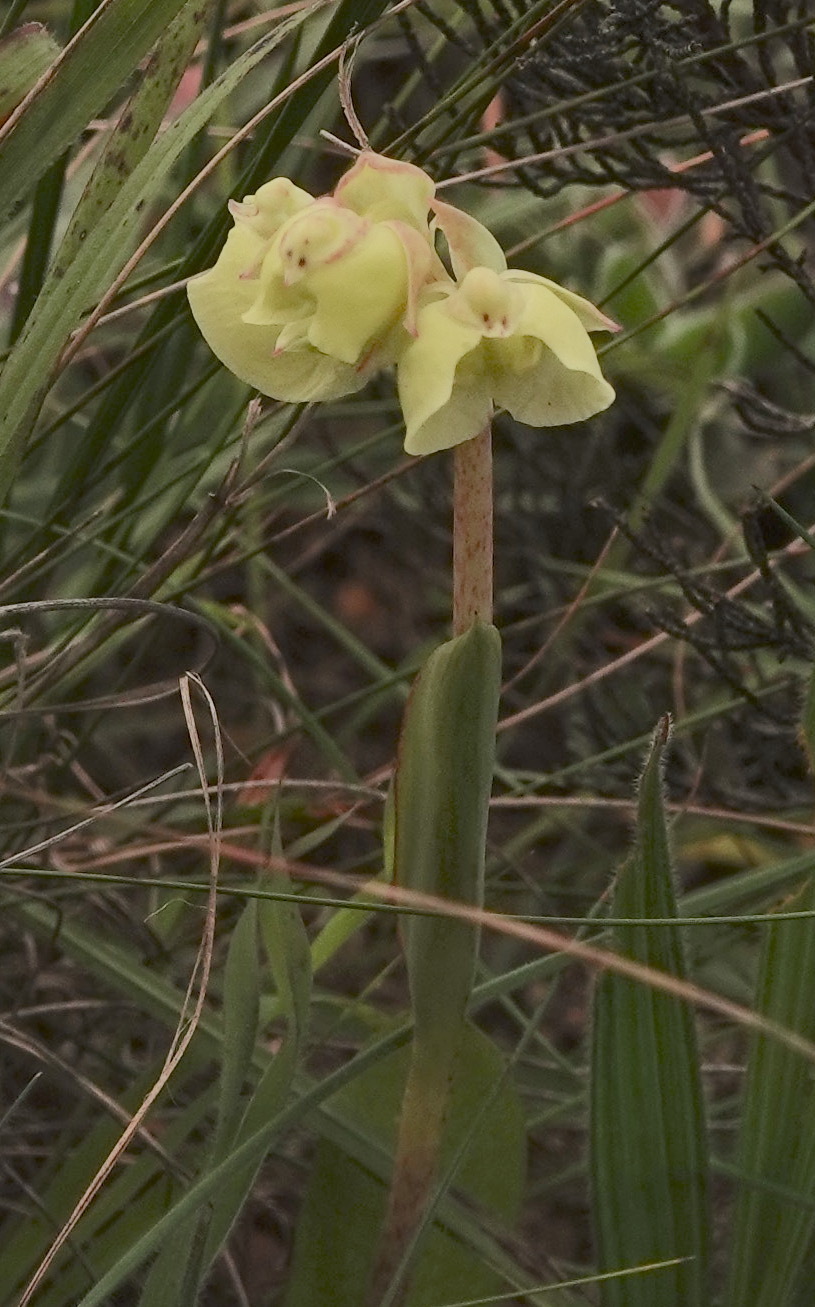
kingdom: Plantae
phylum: Tracheophyta
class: Liliopsida
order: Asparagales
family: Orchidaceae
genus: Pterygodium
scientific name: Pterygodium catholicum
